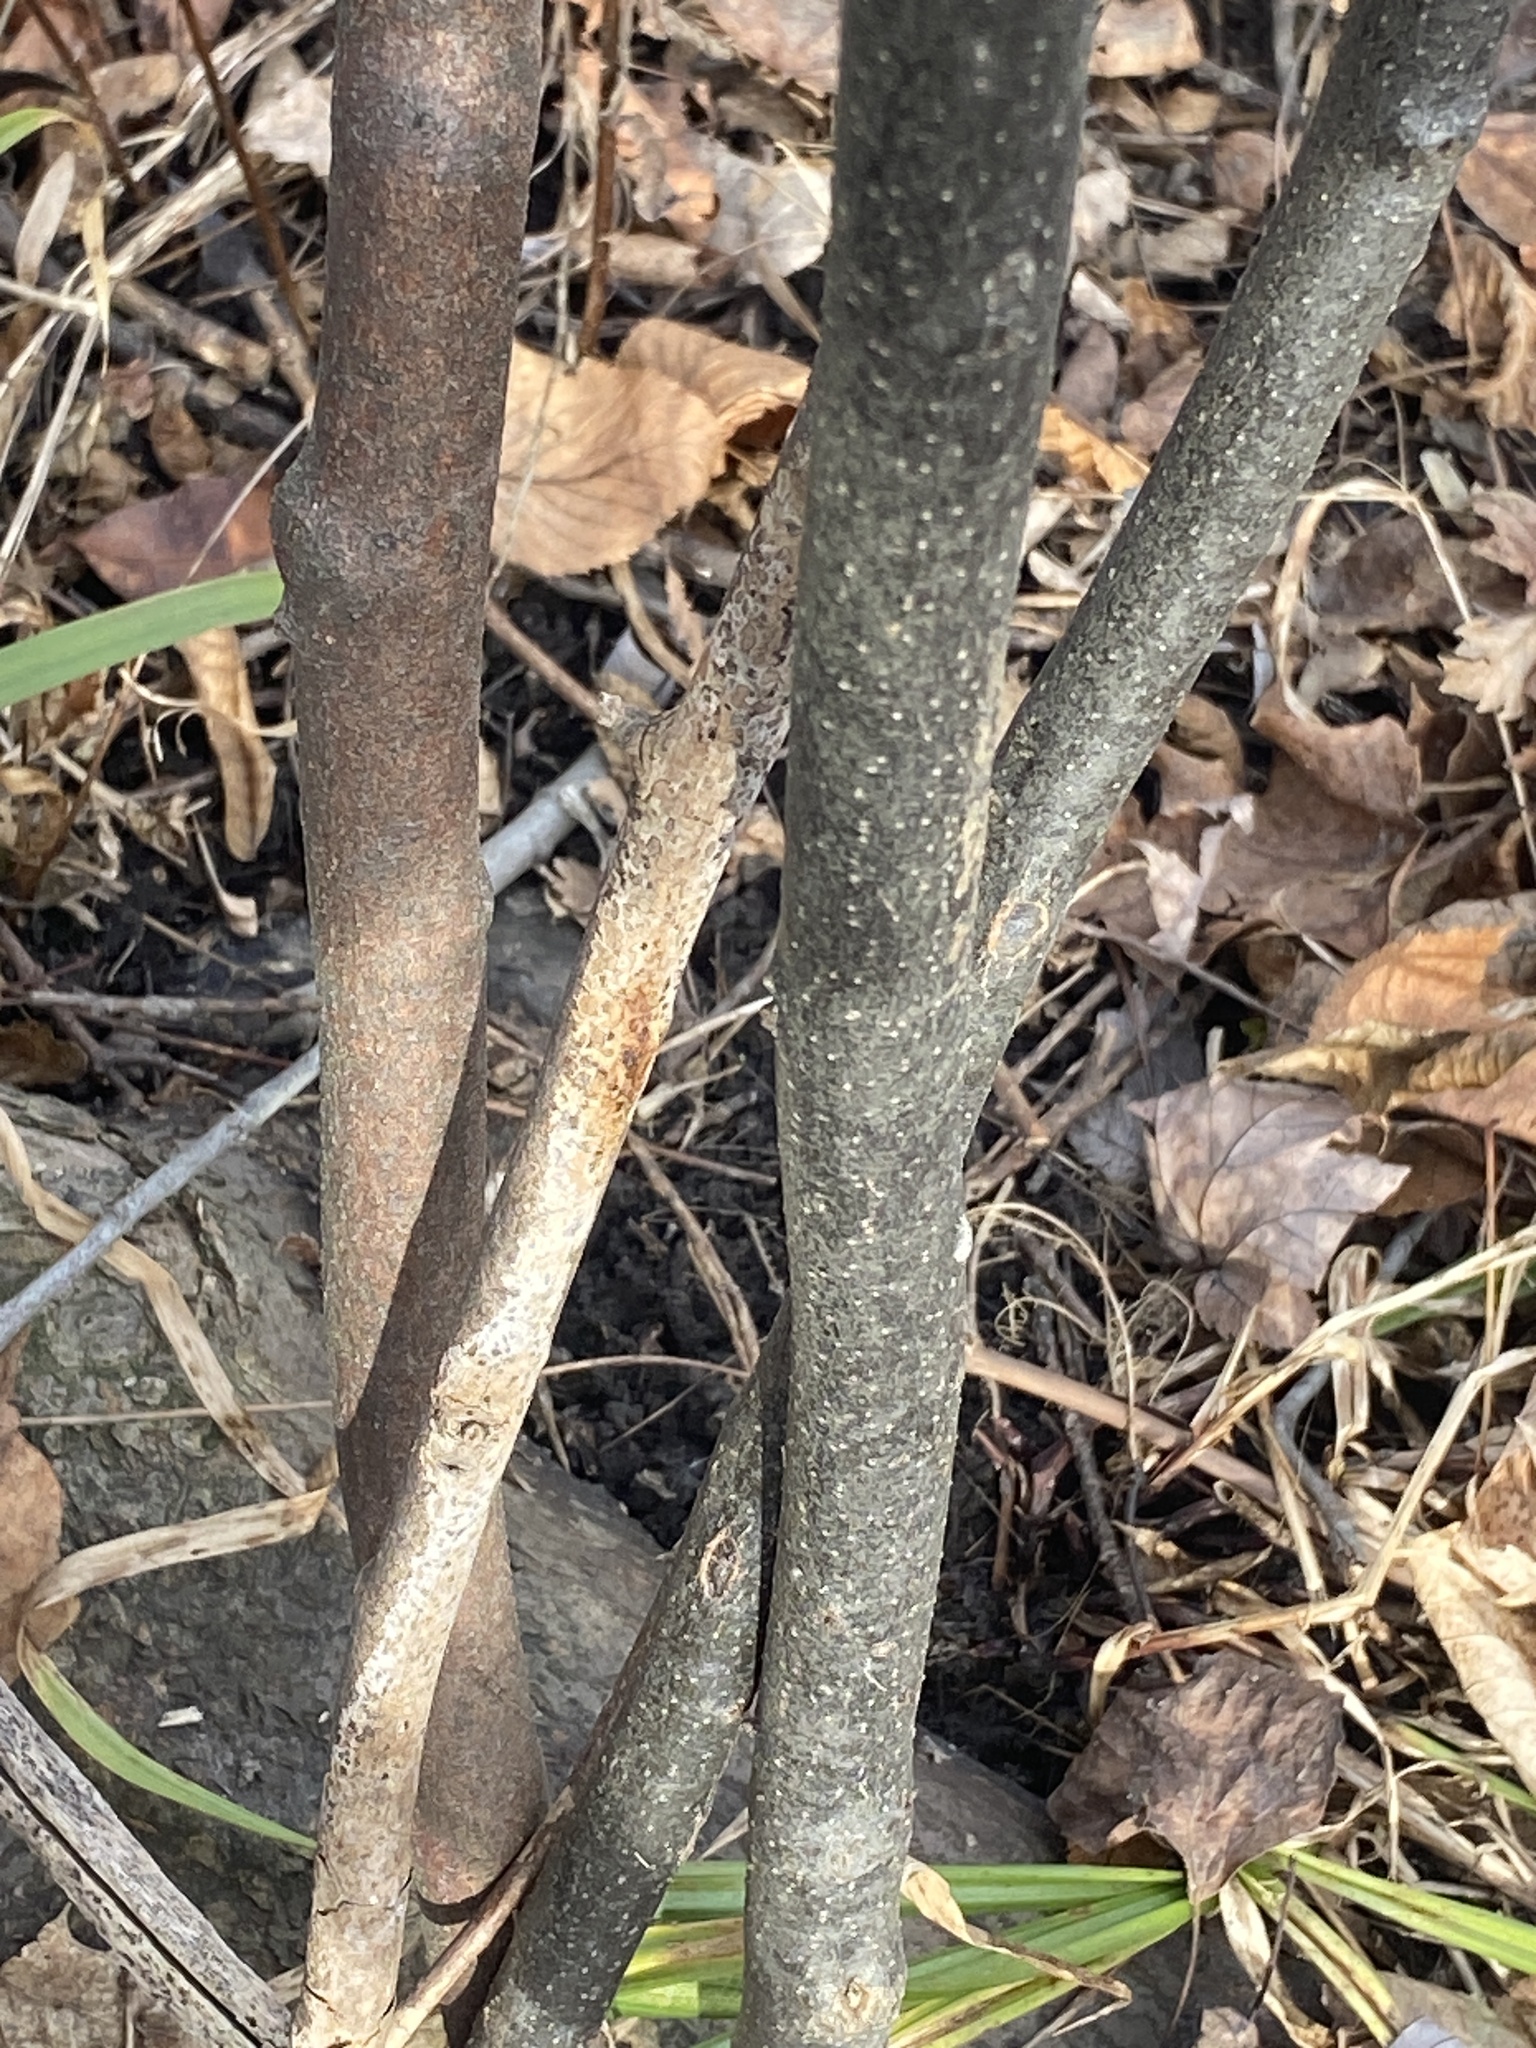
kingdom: Plantae
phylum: Tracheophyta
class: Magnoliopsida
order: Laurales
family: Lauraceae
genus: Lindera
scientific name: Lindera benzoin
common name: Spicebush
